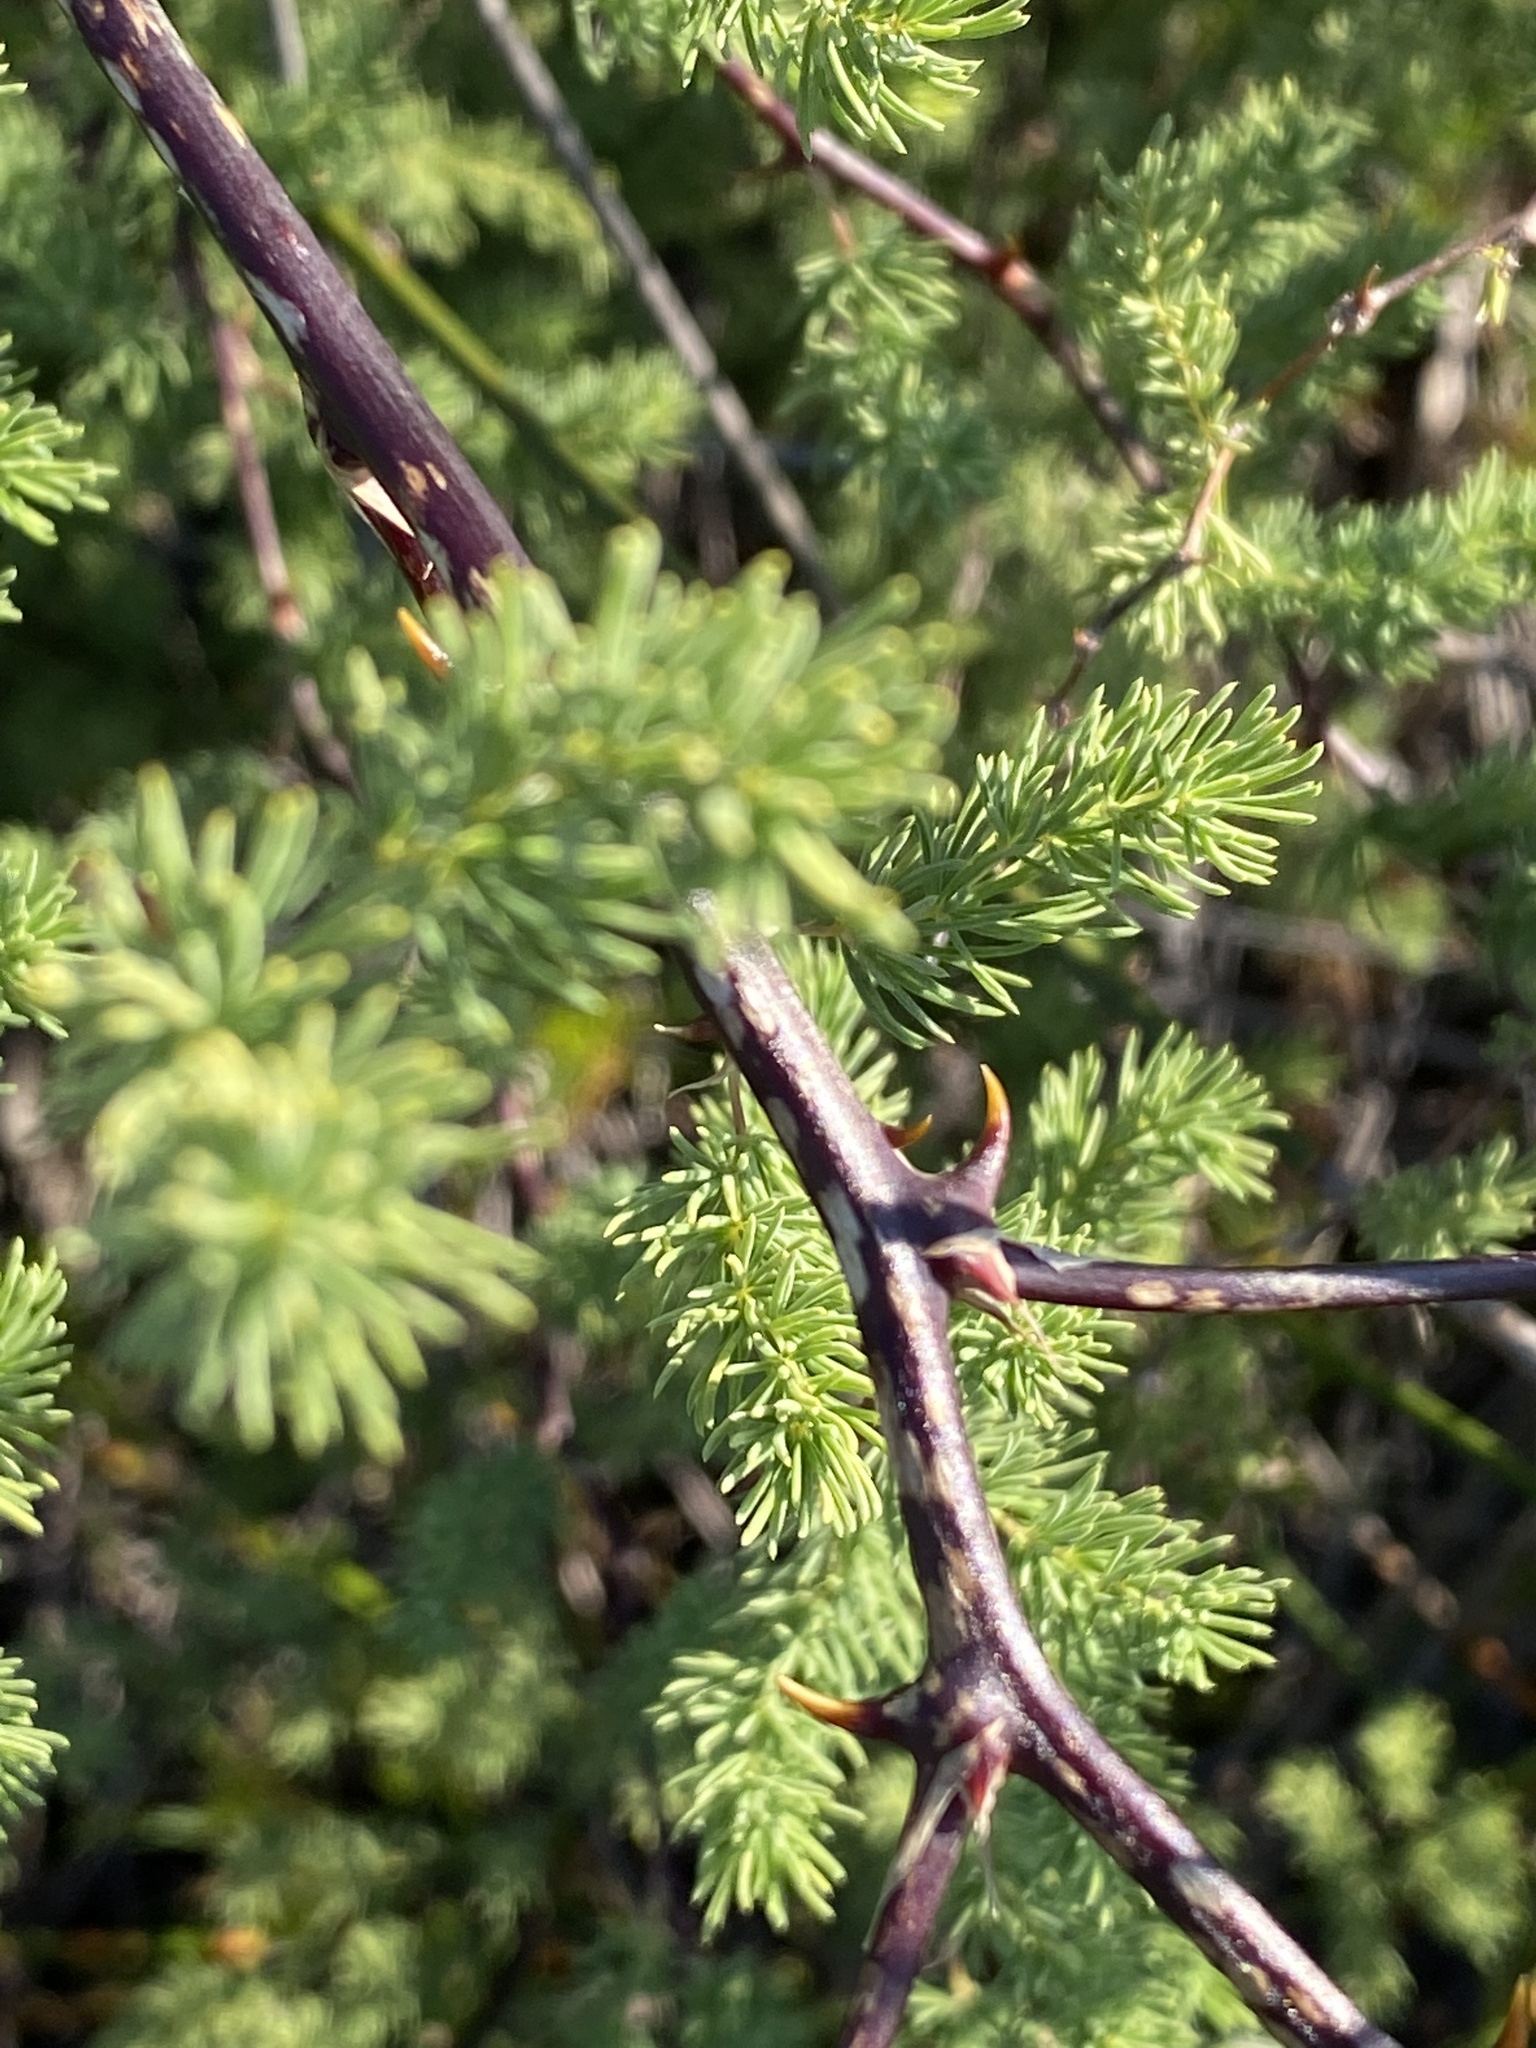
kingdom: Plantae
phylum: Tracheophyta
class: Liliopsida
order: Asparagales
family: Asparagaceae
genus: Asparagus
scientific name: Asparagus rubicundus
